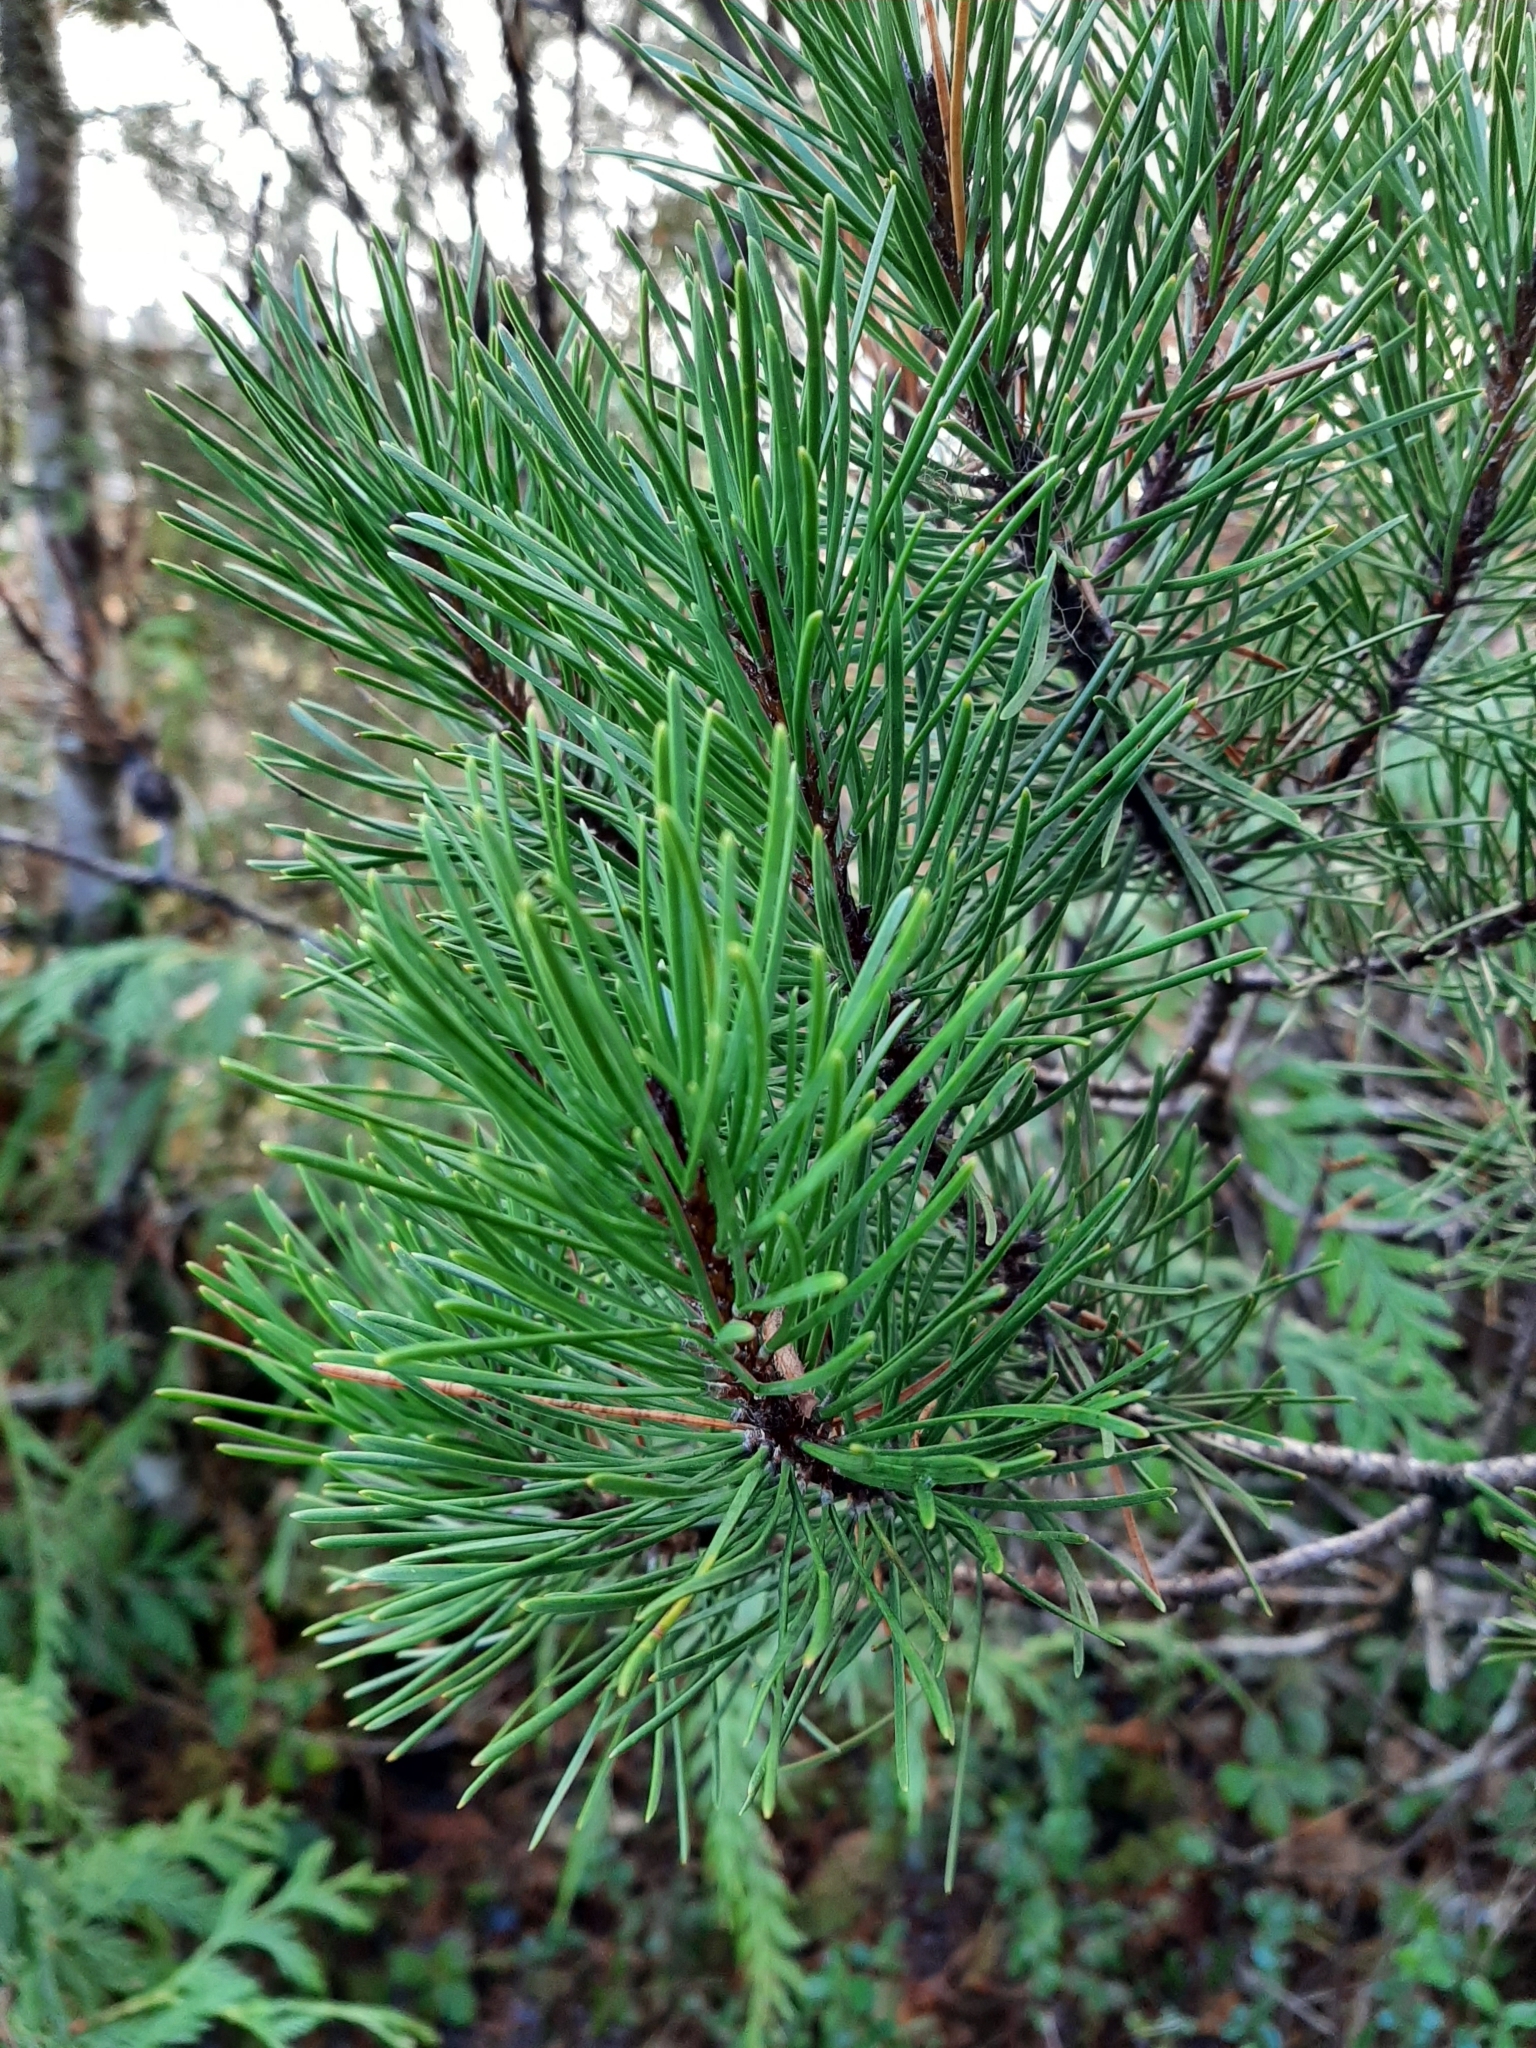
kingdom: Plantae
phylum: Tracheophyta
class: Pinopsida
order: Pinales
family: Pinaceae
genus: Pinus
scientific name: Pinus contorta
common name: Lodgepole pine
